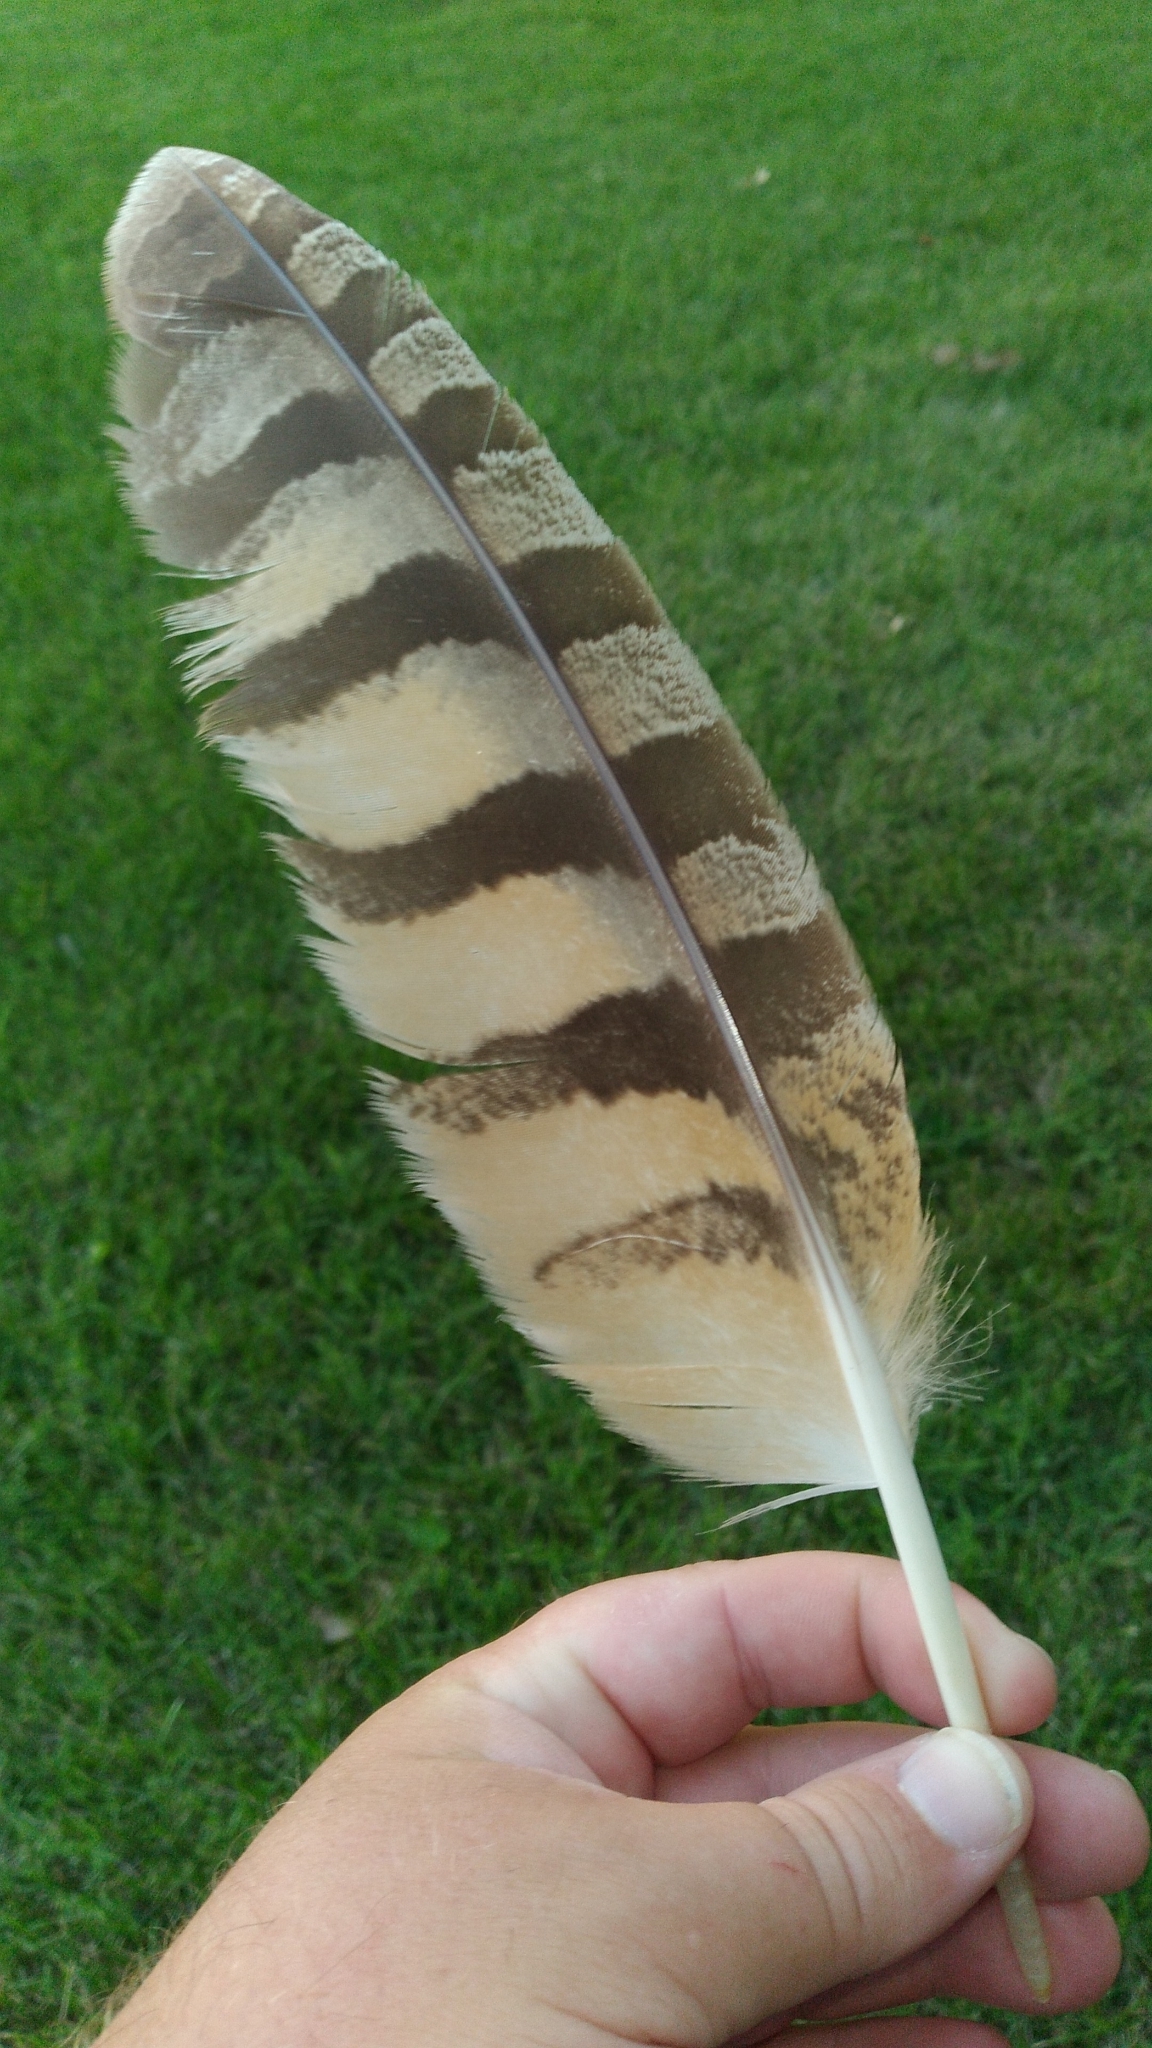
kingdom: Animalia
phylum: Chordata
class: Aves
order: Strigiformes
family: Strigidae
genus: Bubo
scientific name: Bubo virginianus
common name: Great horned owl
